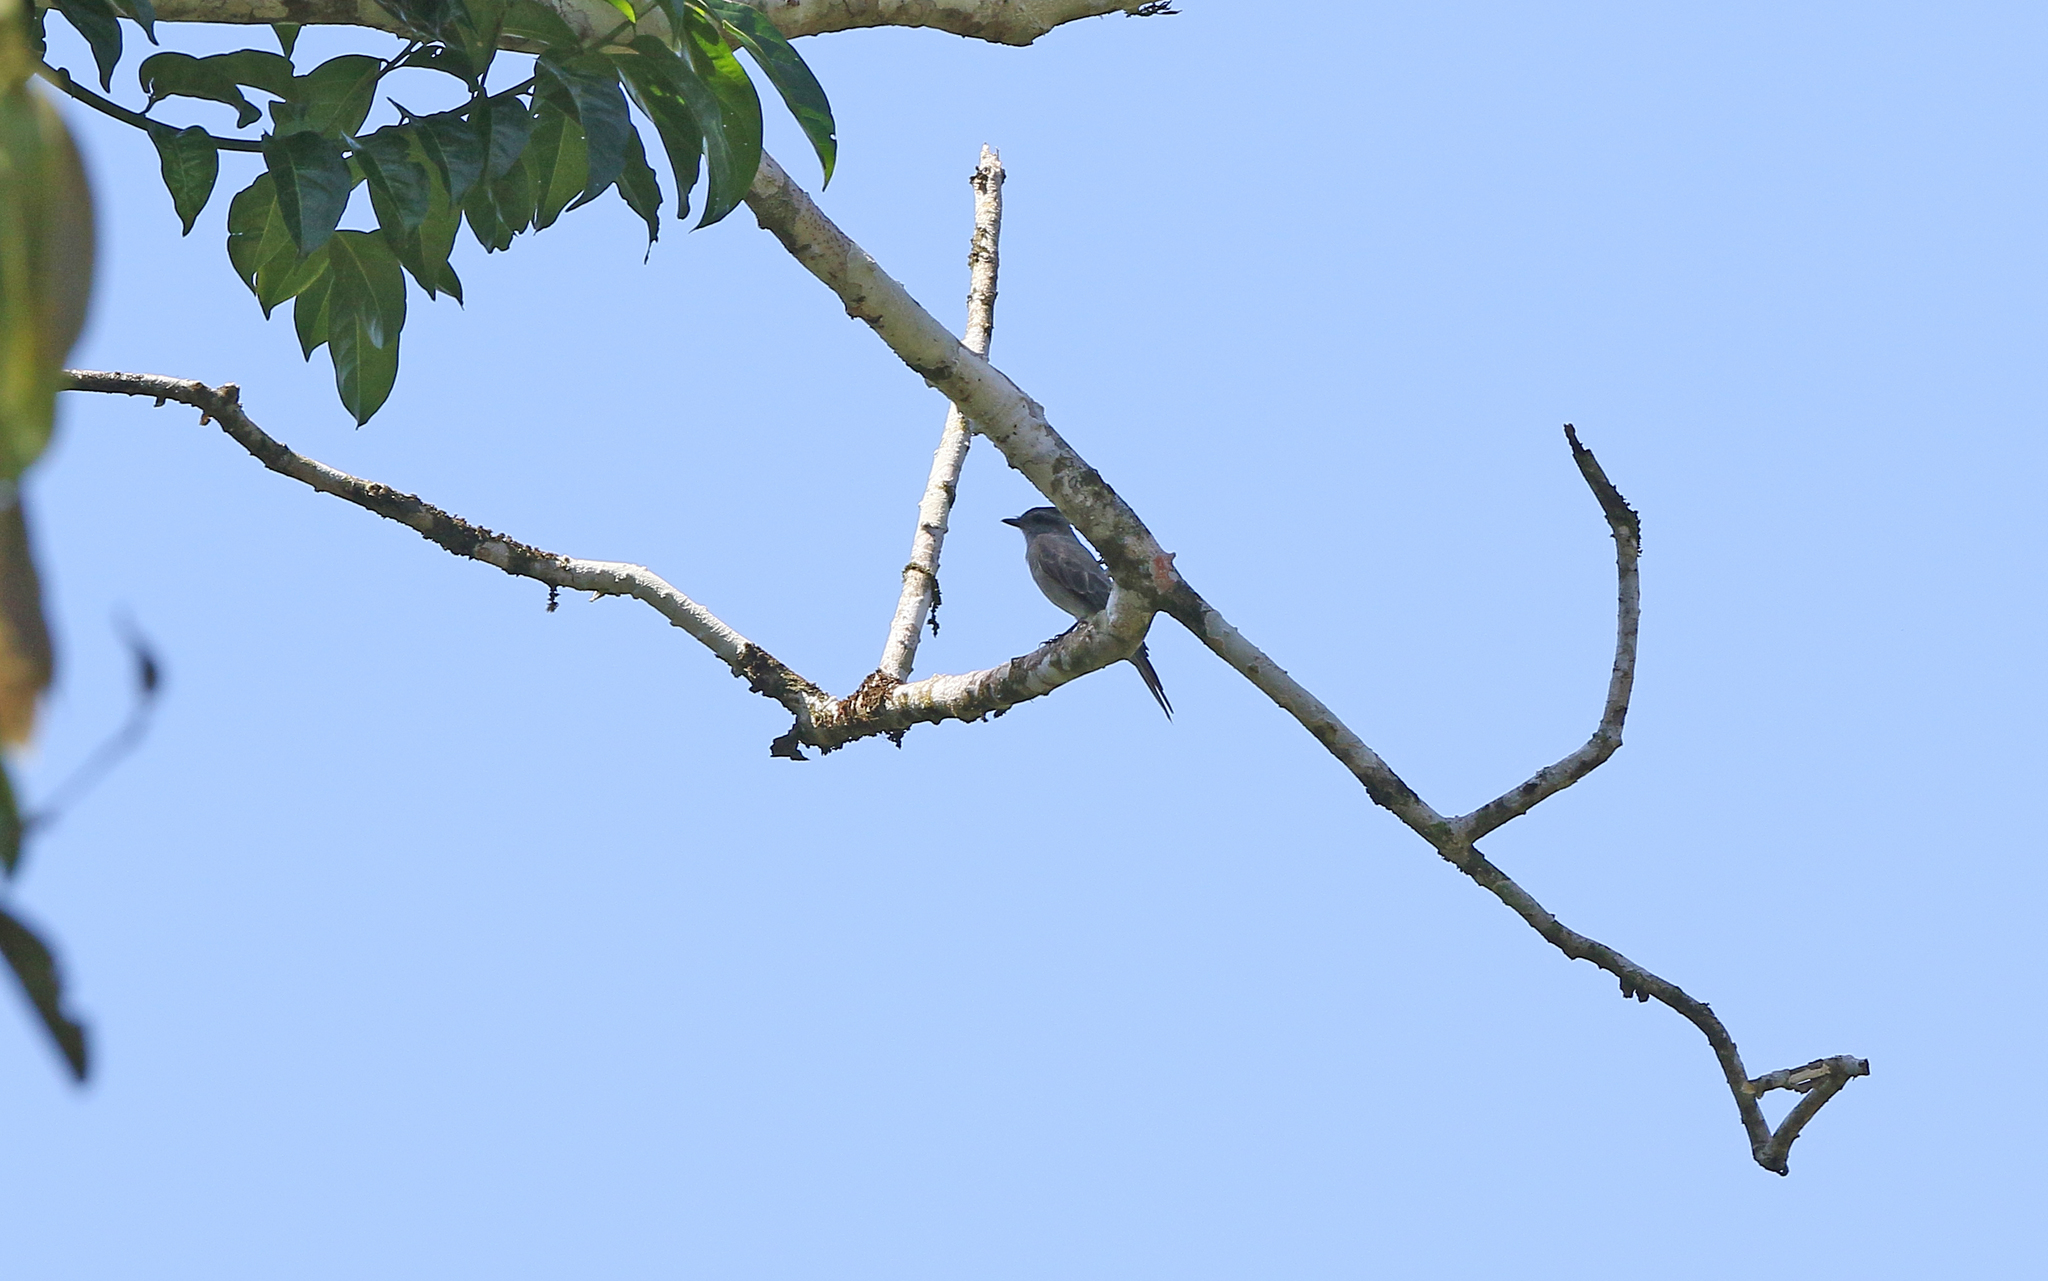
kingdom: Animalia
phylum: Chordata
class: Aves
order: Passeriformes
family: Tyrannidae
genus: Empidonomus
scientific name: Empidonomus aurantioatrocristatus
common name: Crowned slaty flycatcher
